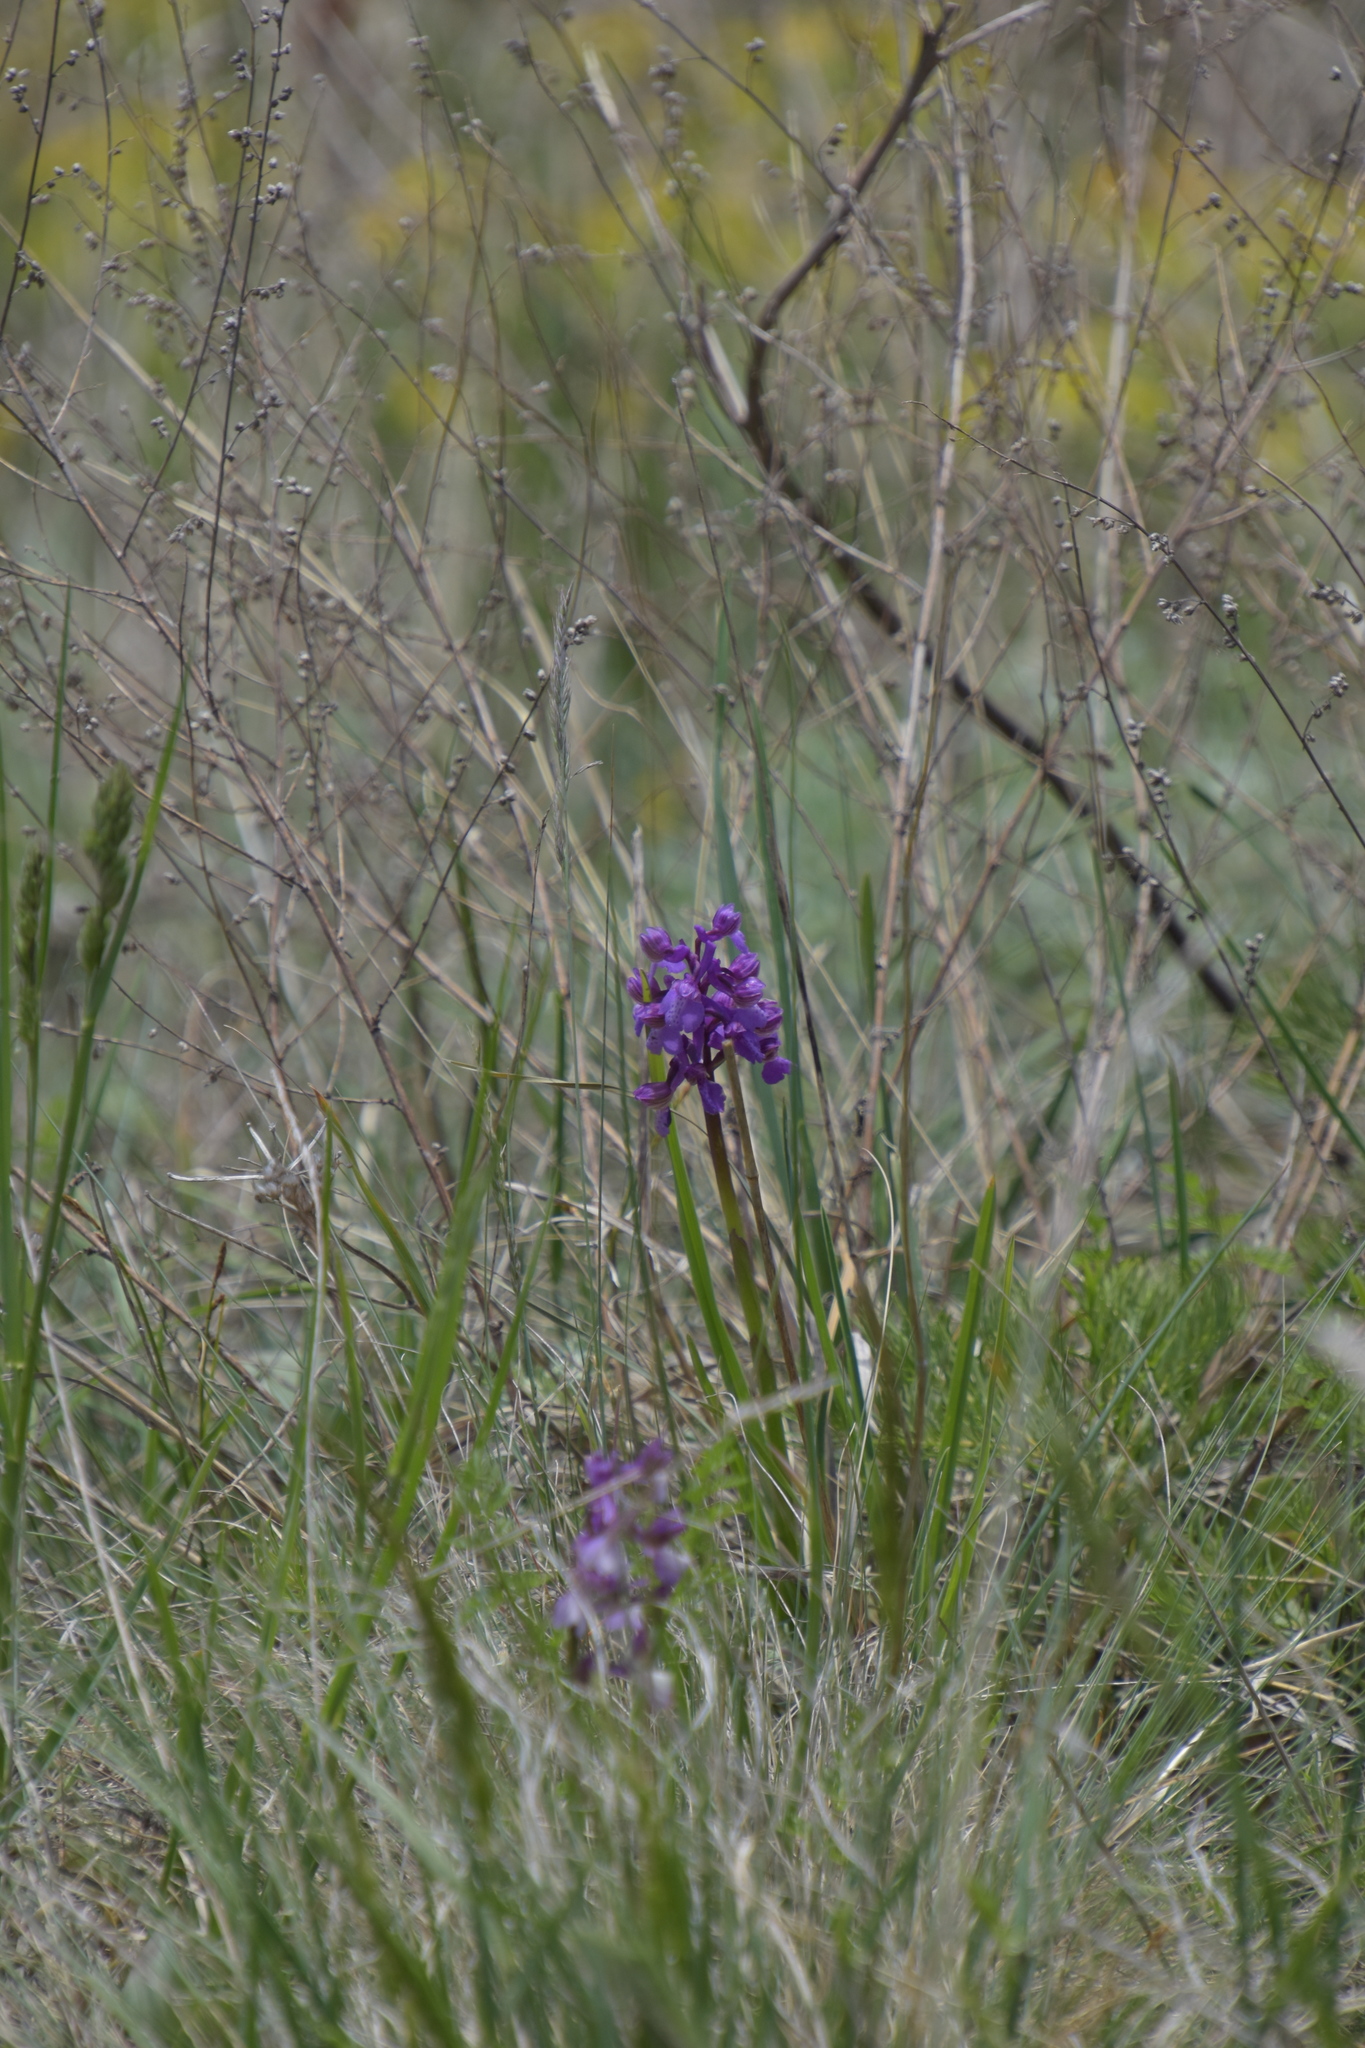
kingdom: Plantae
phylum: Tracheophyta
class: Liliopsida
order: Asparagales
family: Orchidaceae
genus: Anacamptis
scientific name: Anacamptis morio
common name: Green-winged orchid
